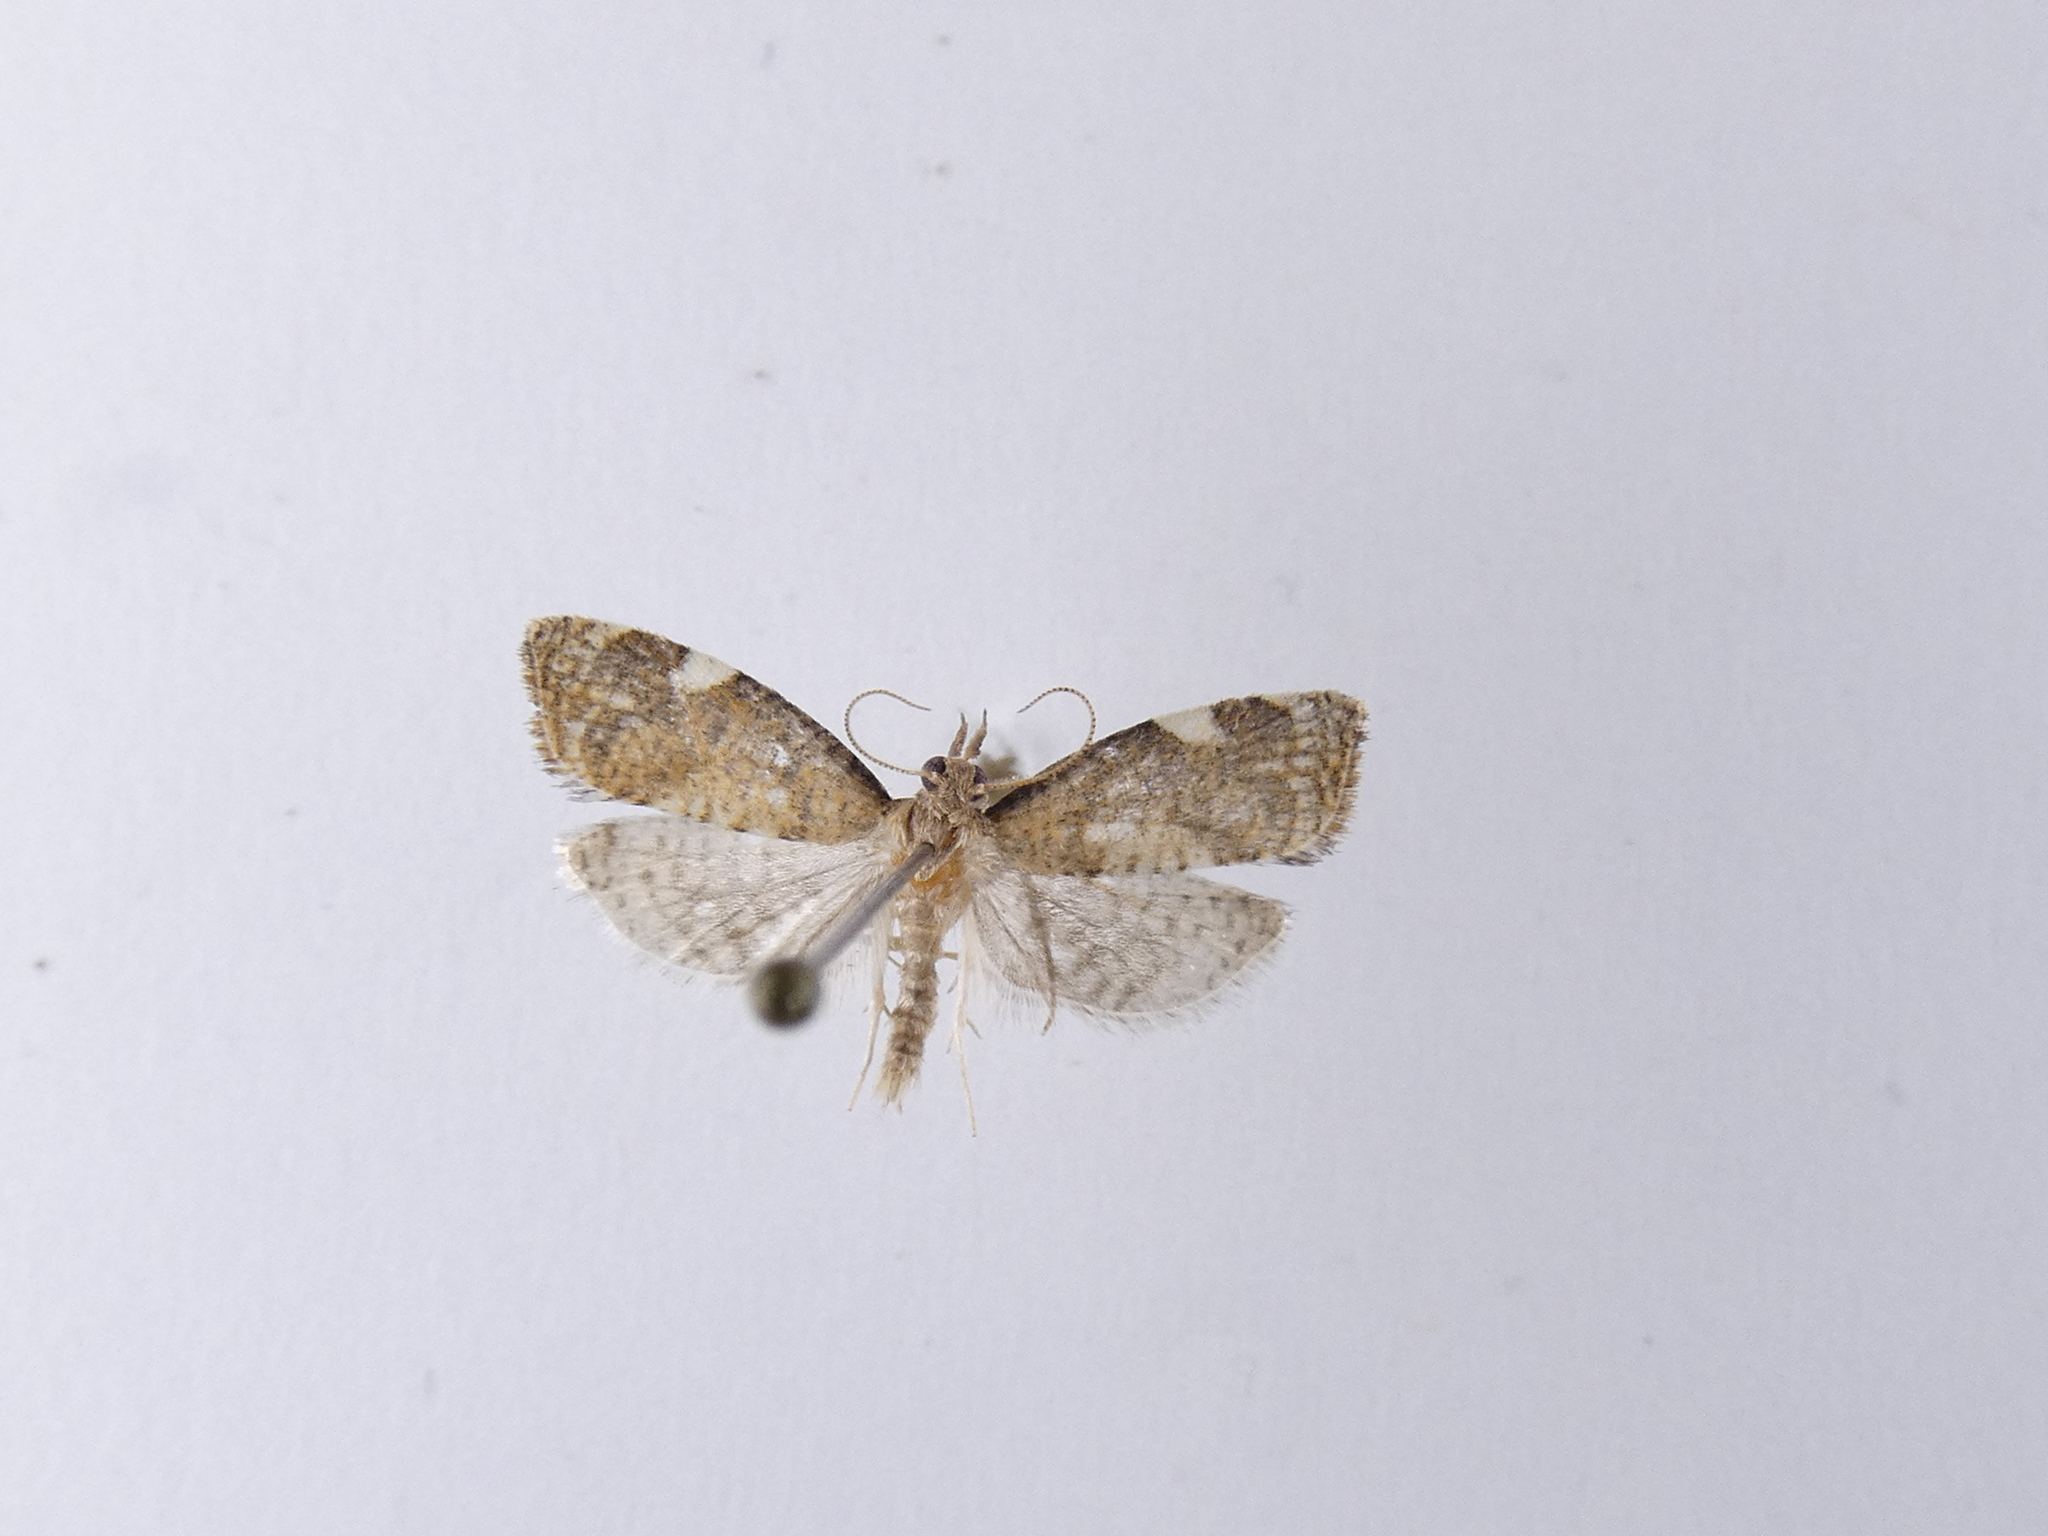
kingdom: Animalia
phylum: Arthropoda
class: Insecta
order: Lepidoptera
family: Tortricidae
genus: Catamacta
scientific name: Catamacta gavisana
